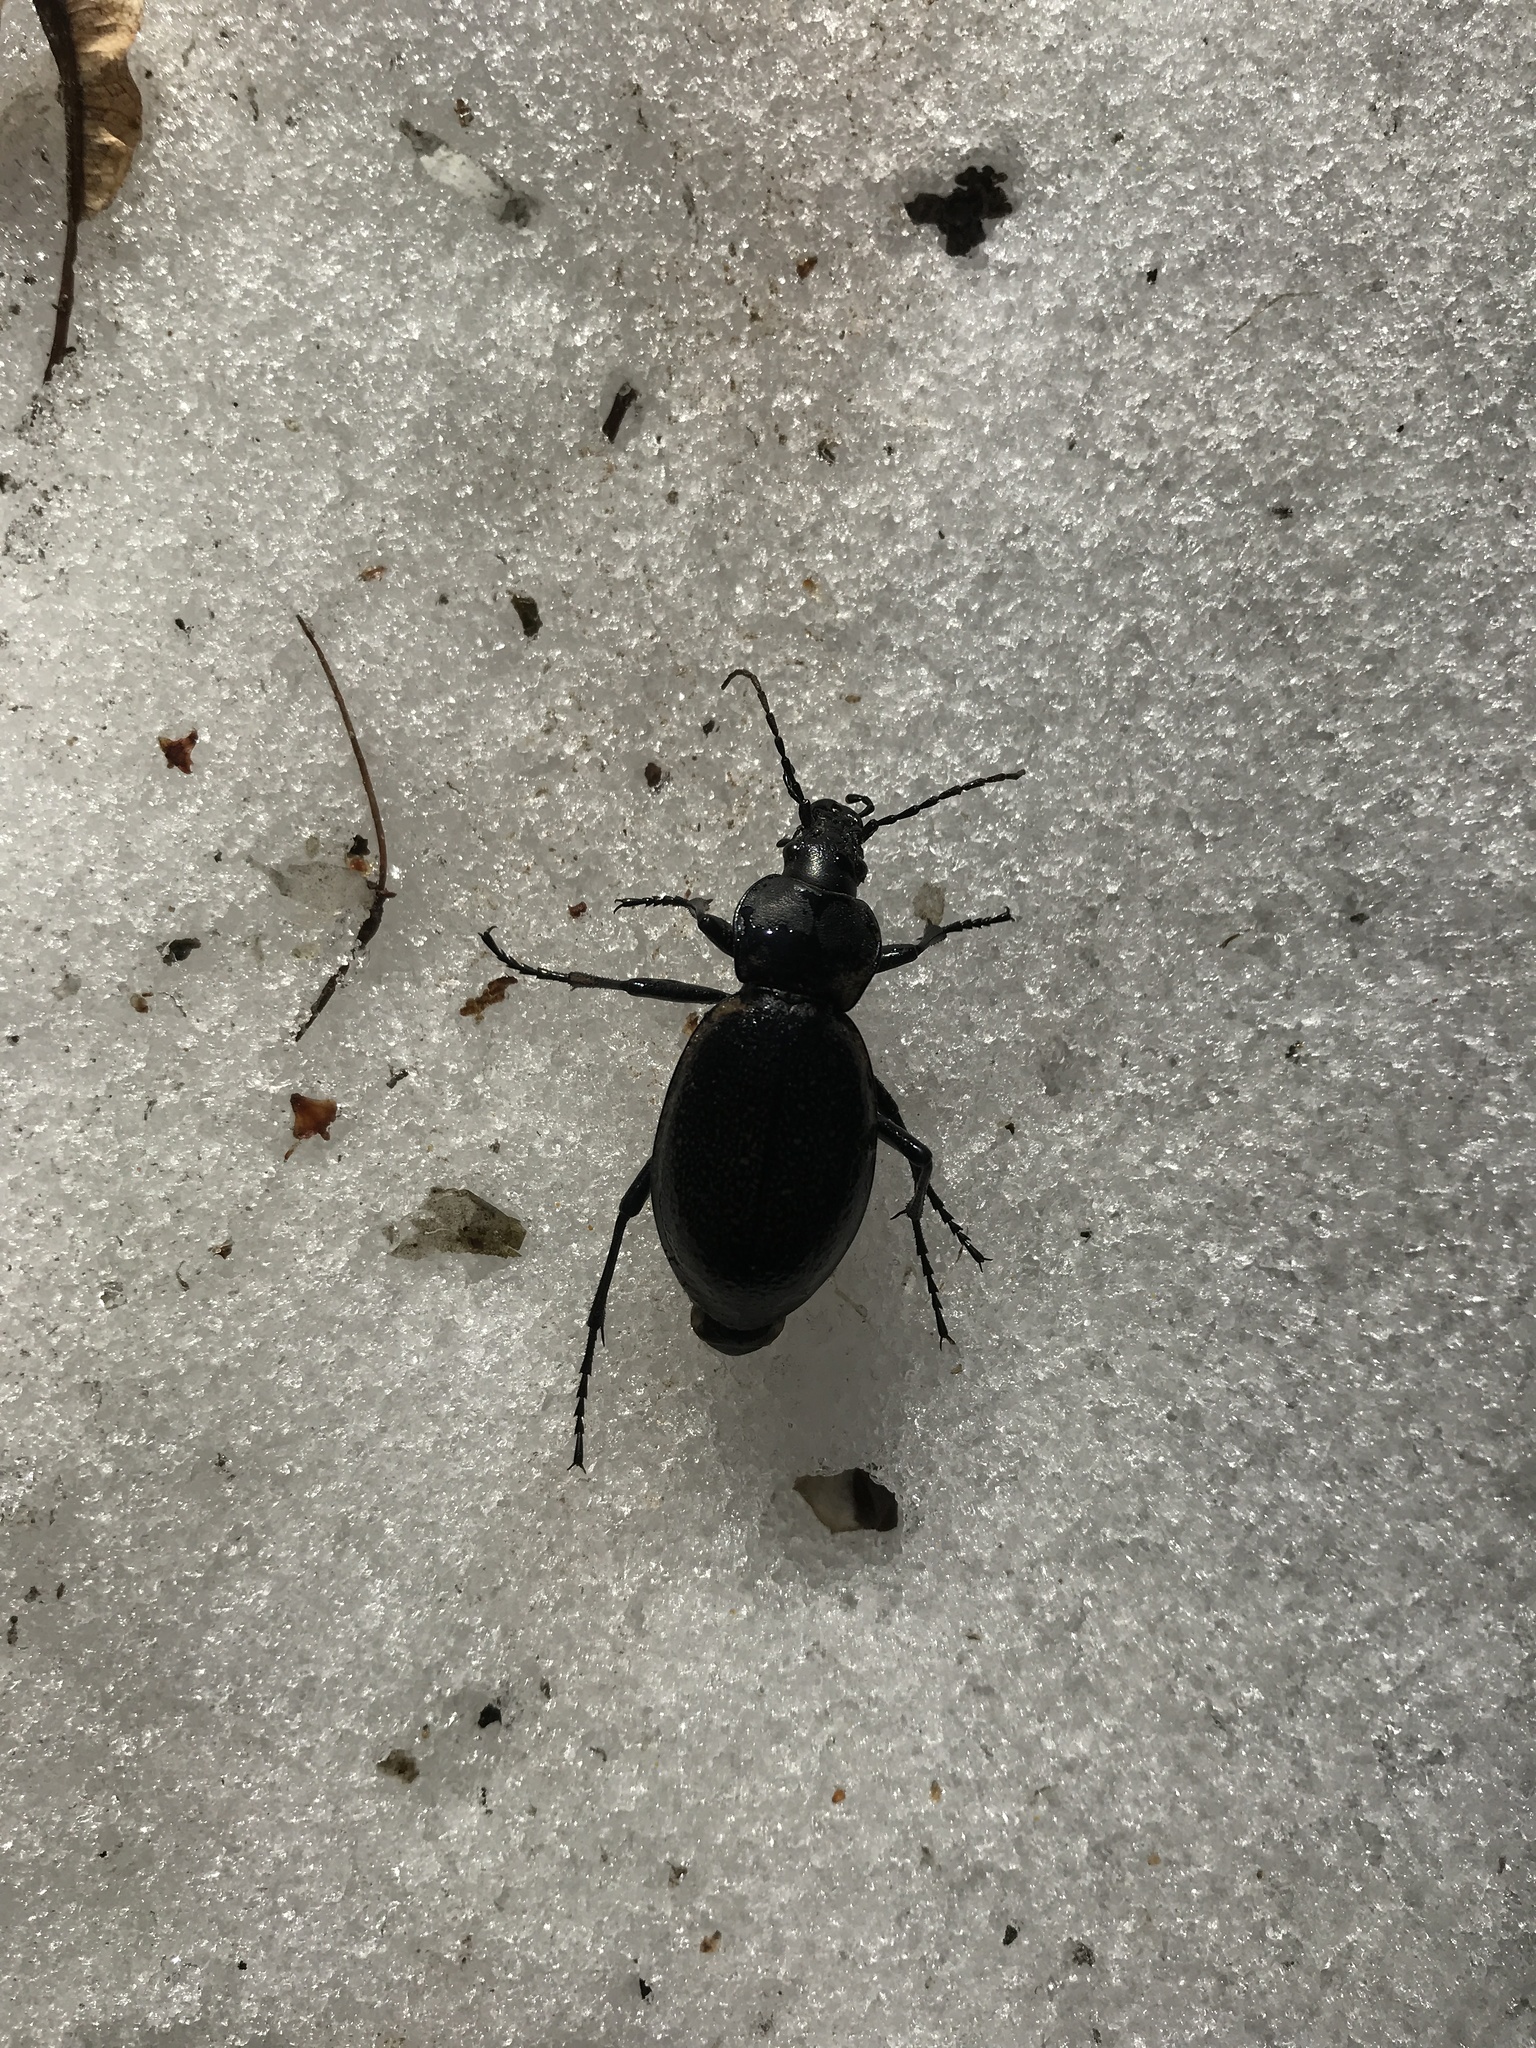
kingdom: Animalia
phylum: Arthropoda
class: Insecta
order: Coleoptera
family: Carabidae
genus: Carabus
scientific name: Carabus coriaceus
